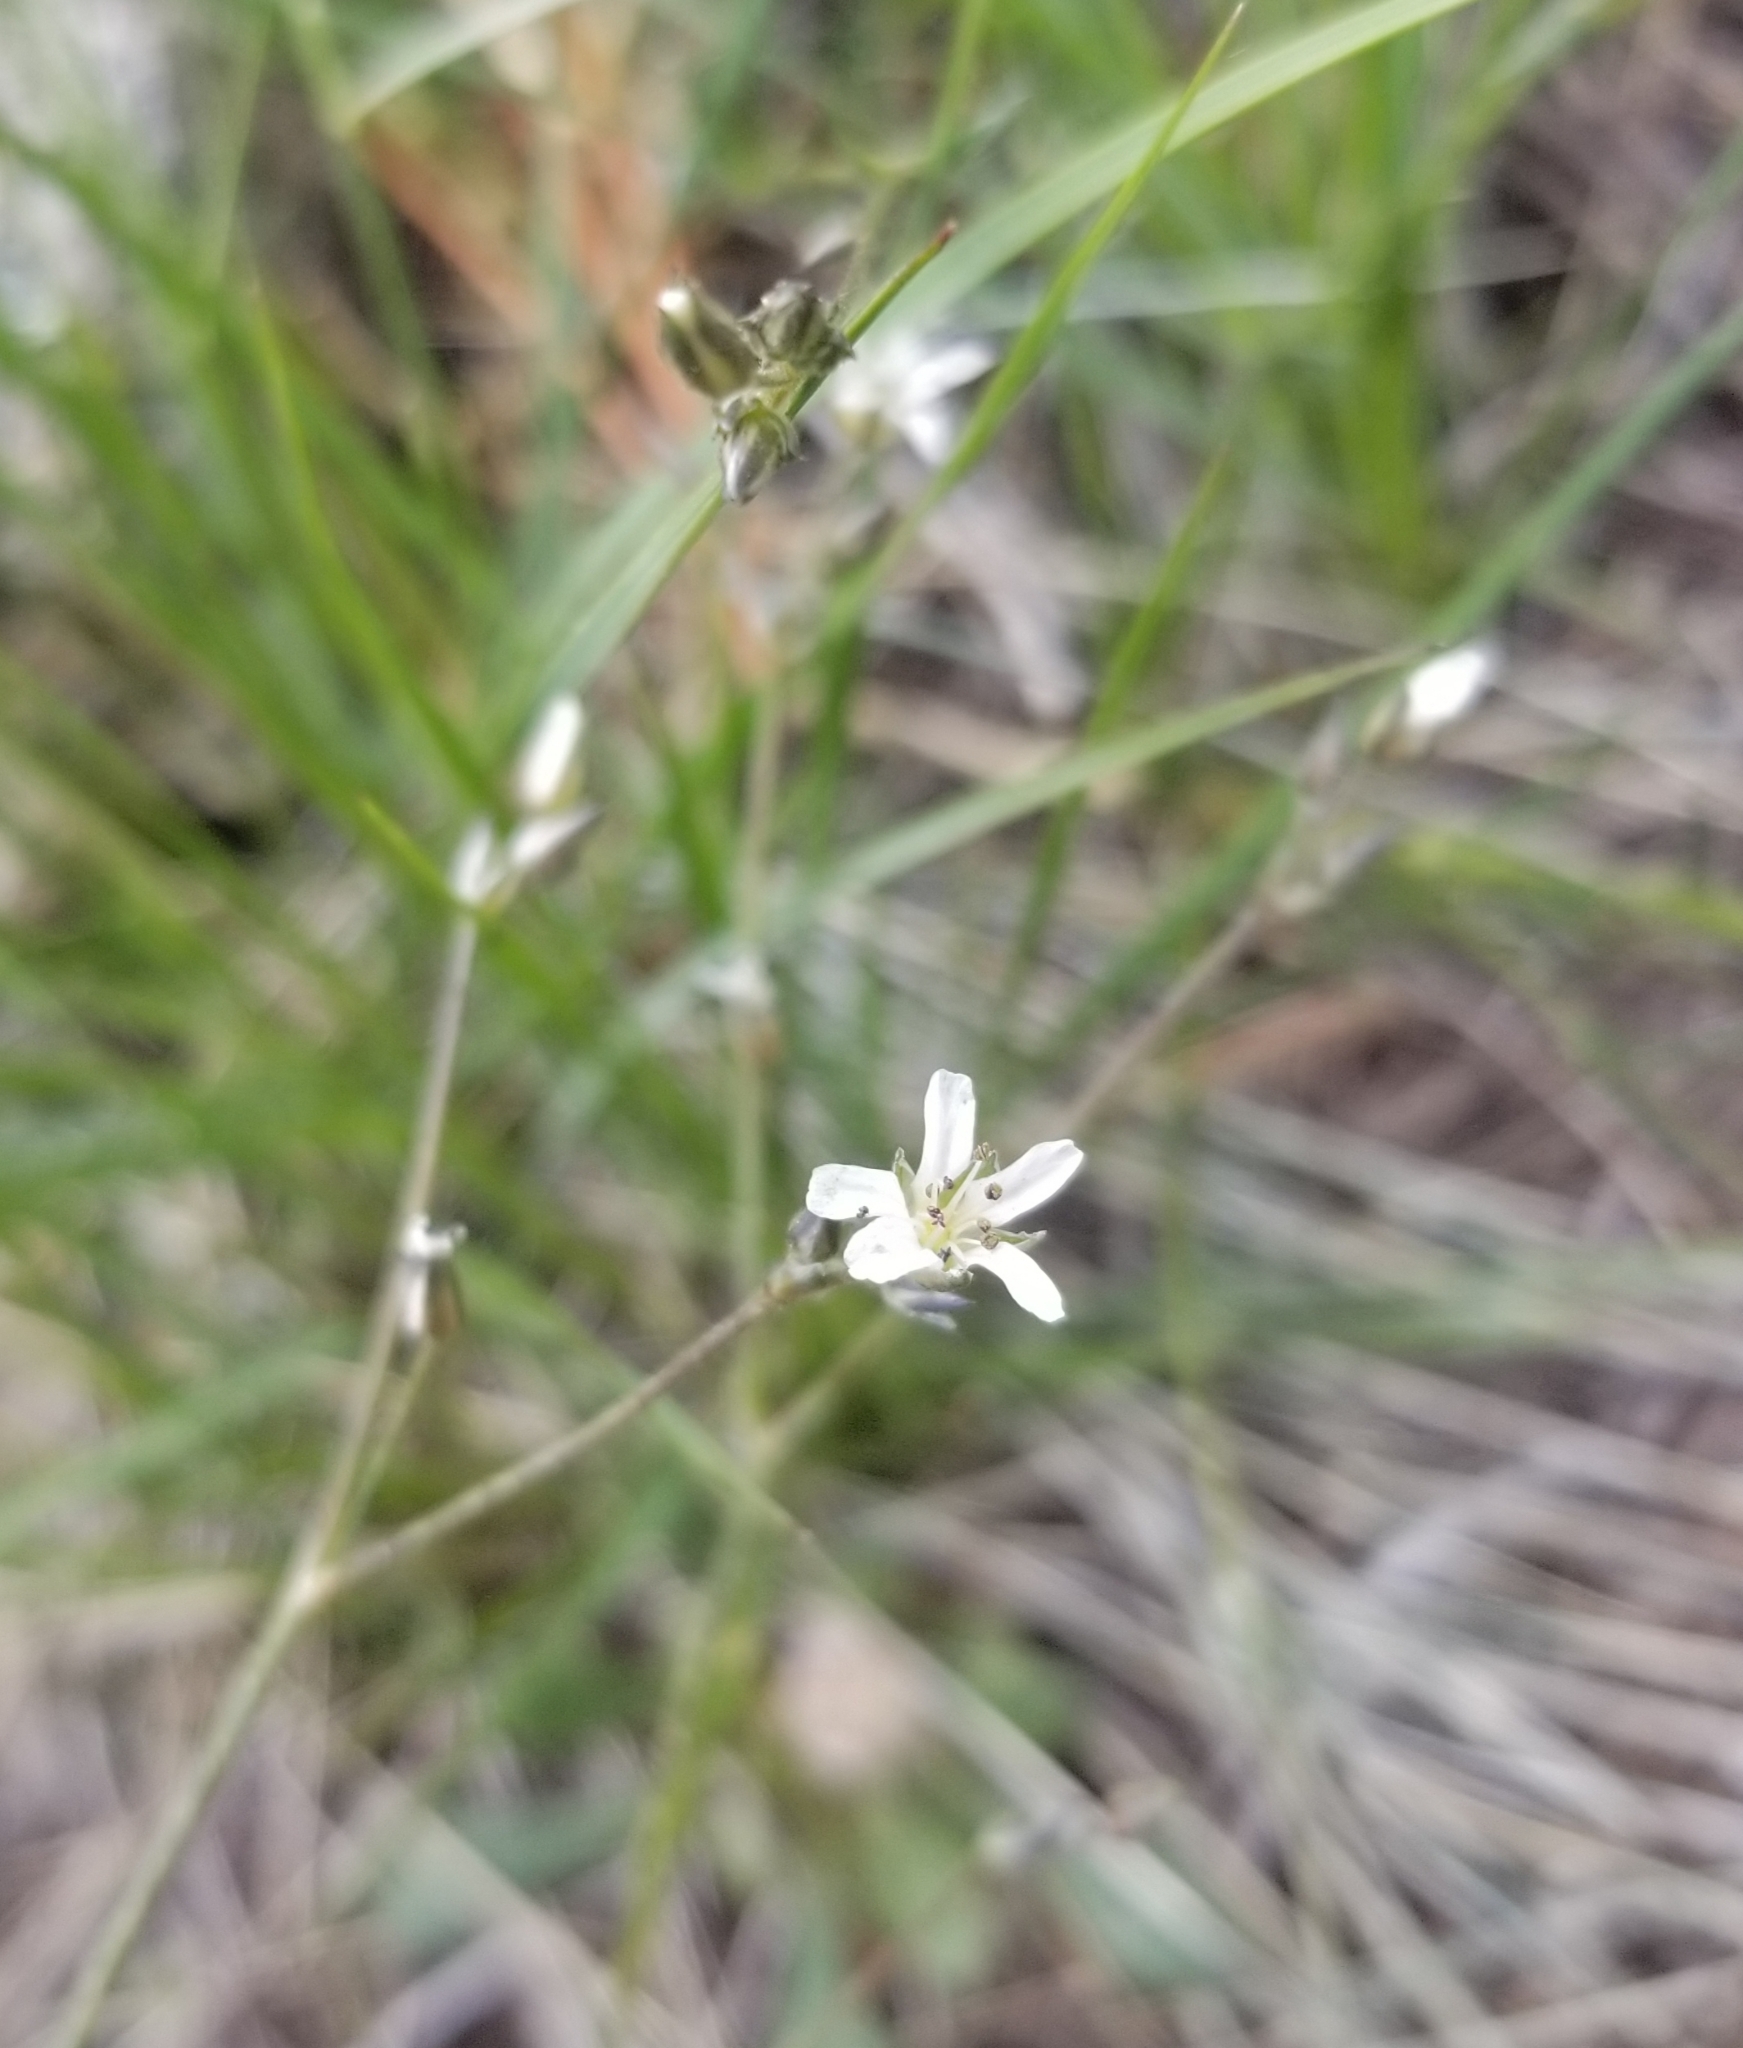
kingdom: Plantae
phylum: Tracheophyta
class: Magnoliopsida
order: Caryophyllales
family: Caryophyllaceae
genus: Eremogone
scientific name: Eremogone kingii
